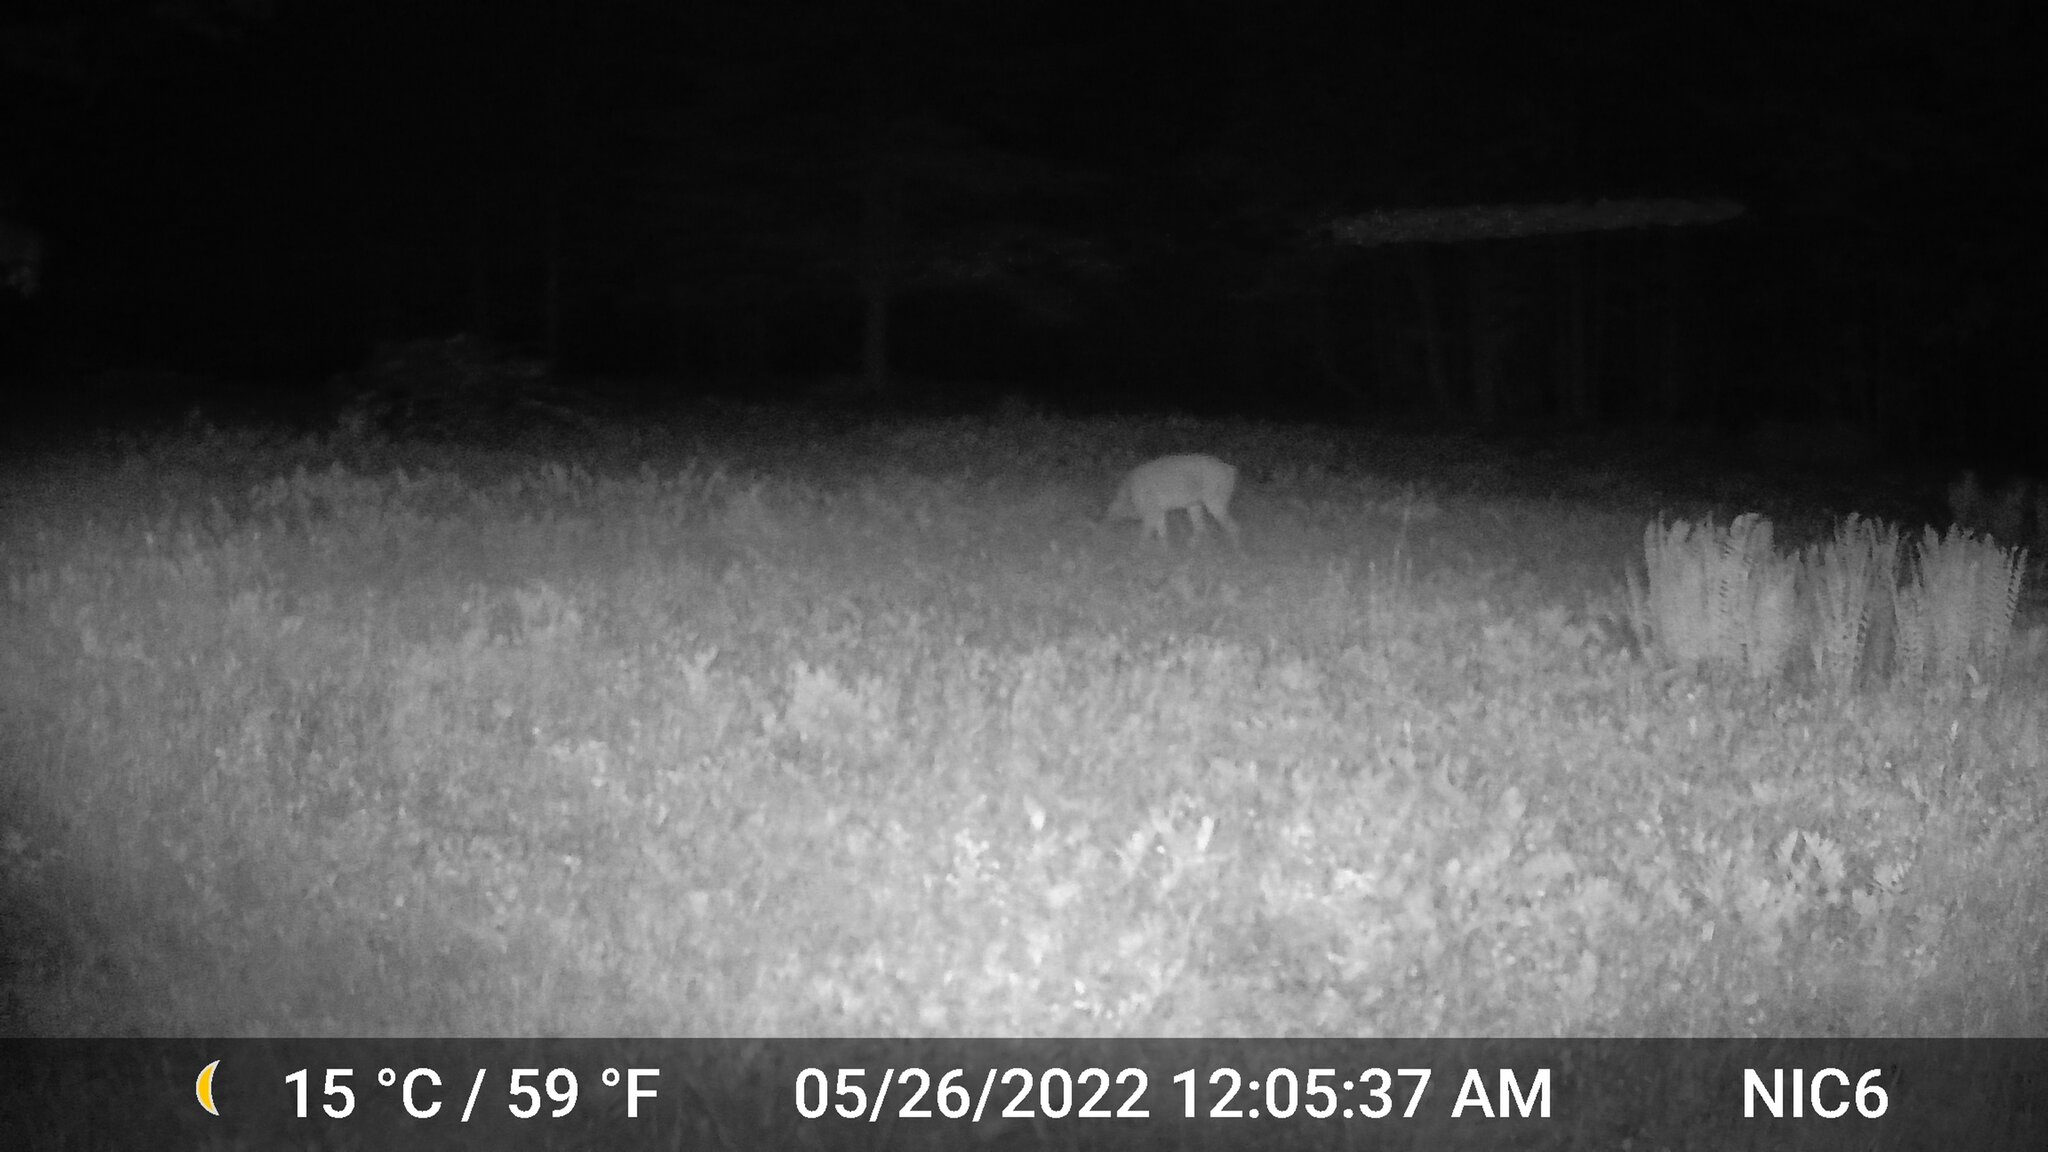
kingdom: Animalia
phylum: Chordata
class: Mammalia
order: Artiodactyla
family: Cervidae
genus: Odocoileus
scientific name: Odocoileus virginianus
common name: White-tailed deer
